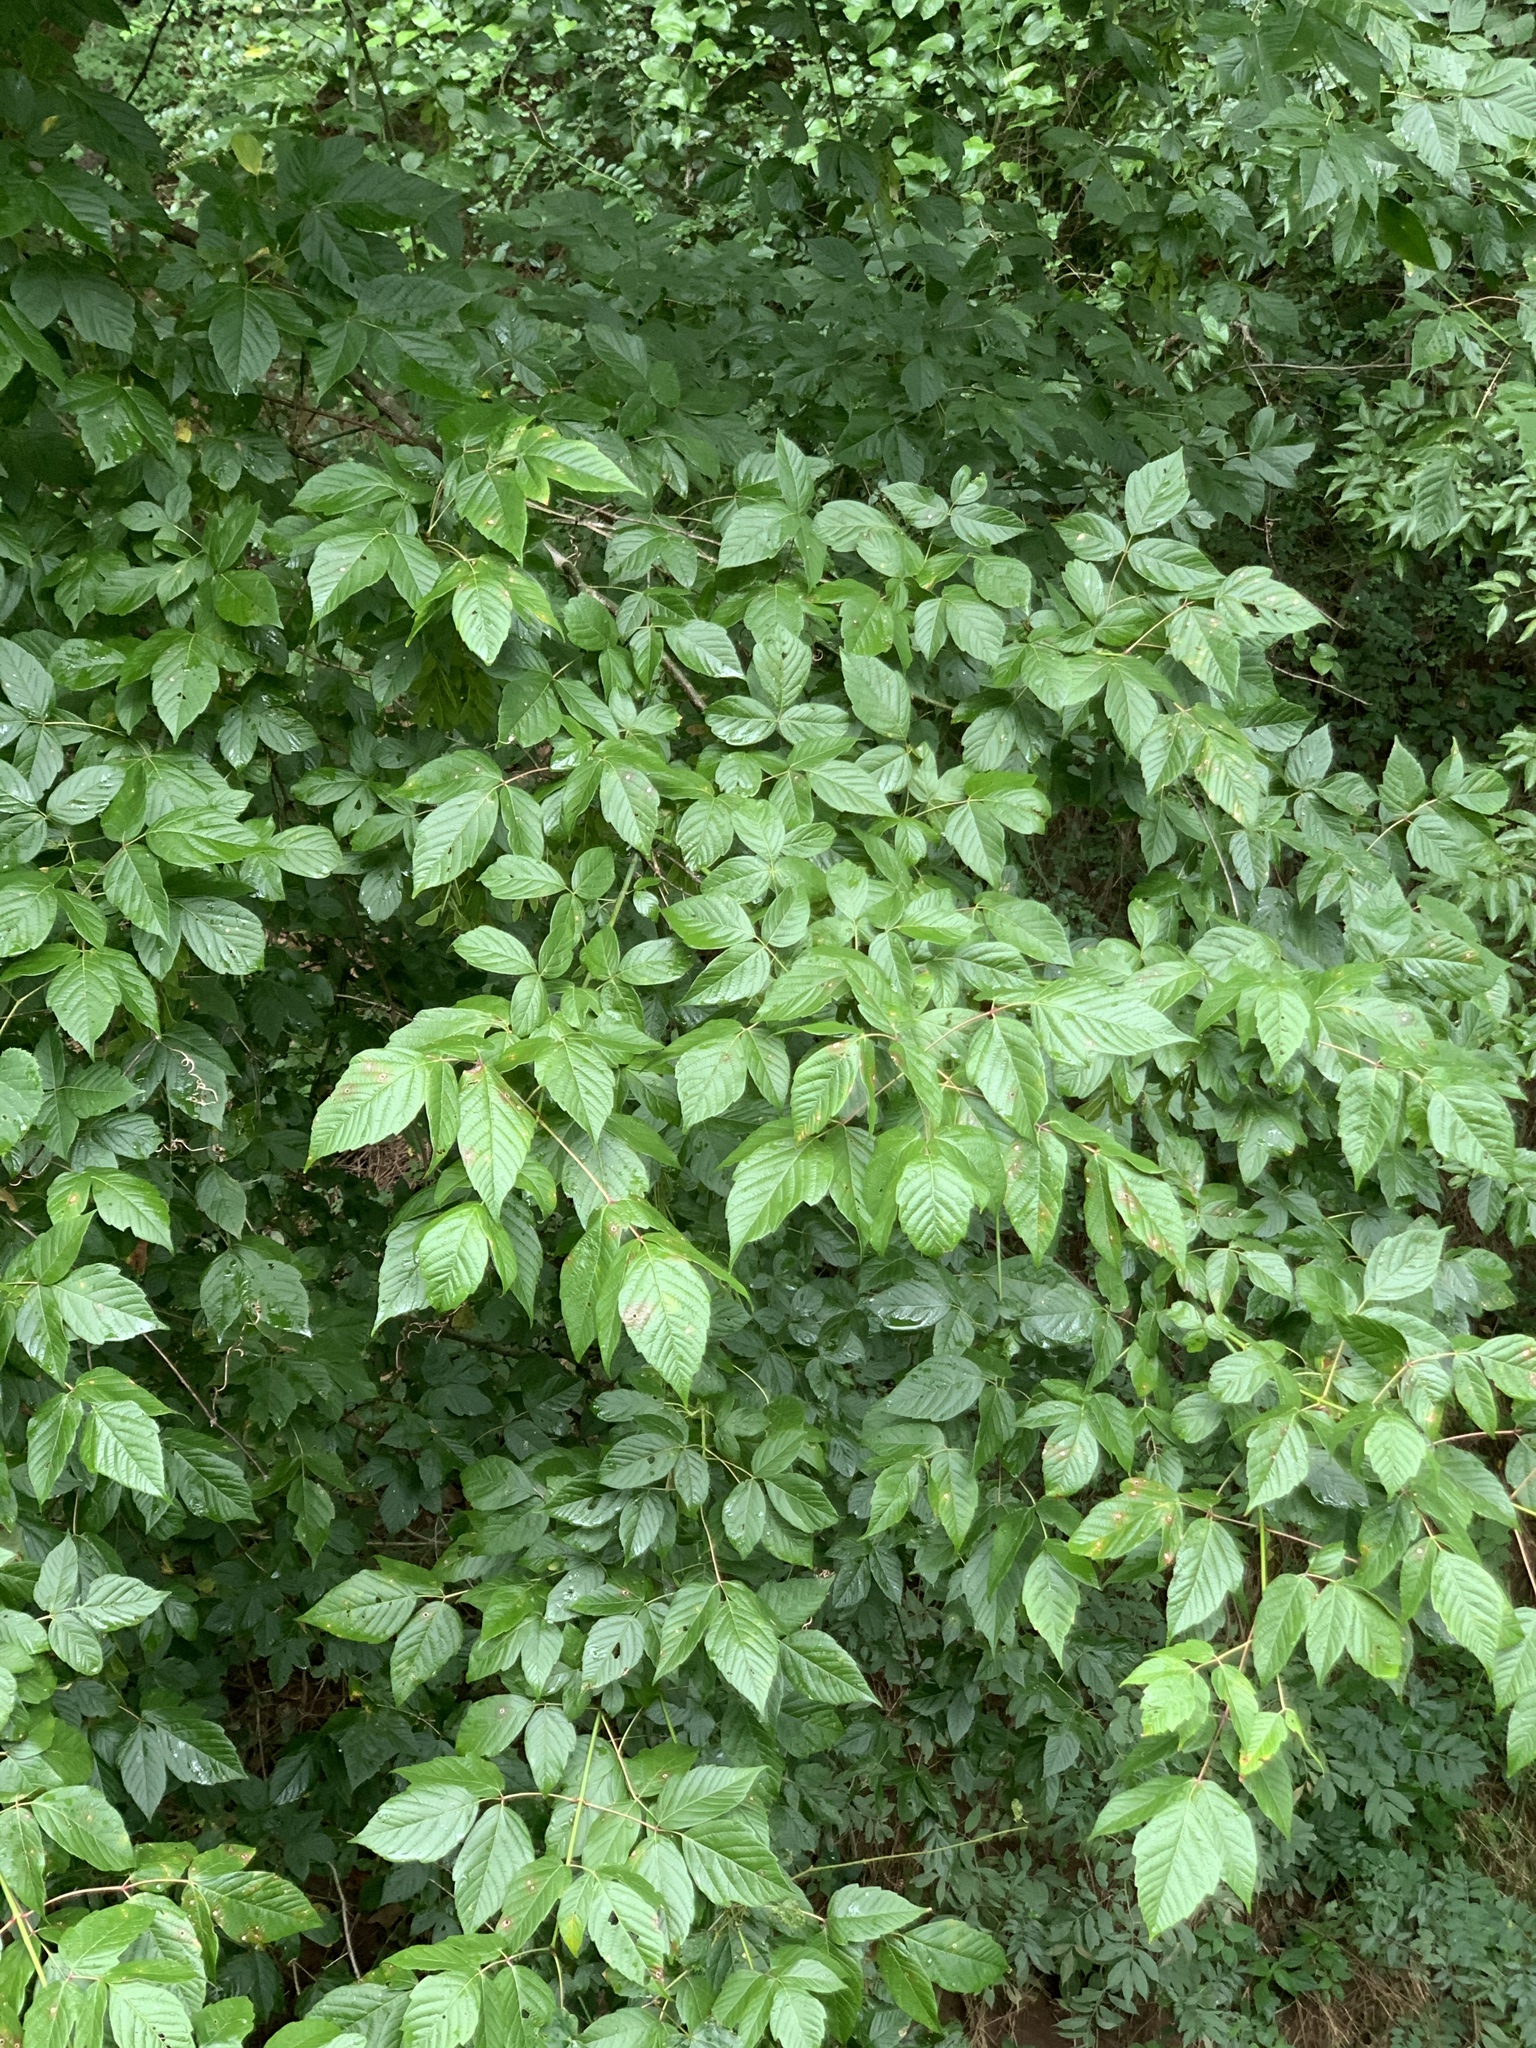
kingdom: Plantae
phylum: Tracheophyta
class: Magnoliopsida
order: Sapindales
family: Sapindaceae
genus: Acer
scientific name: Acer negundo
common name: Ashleaf maple
